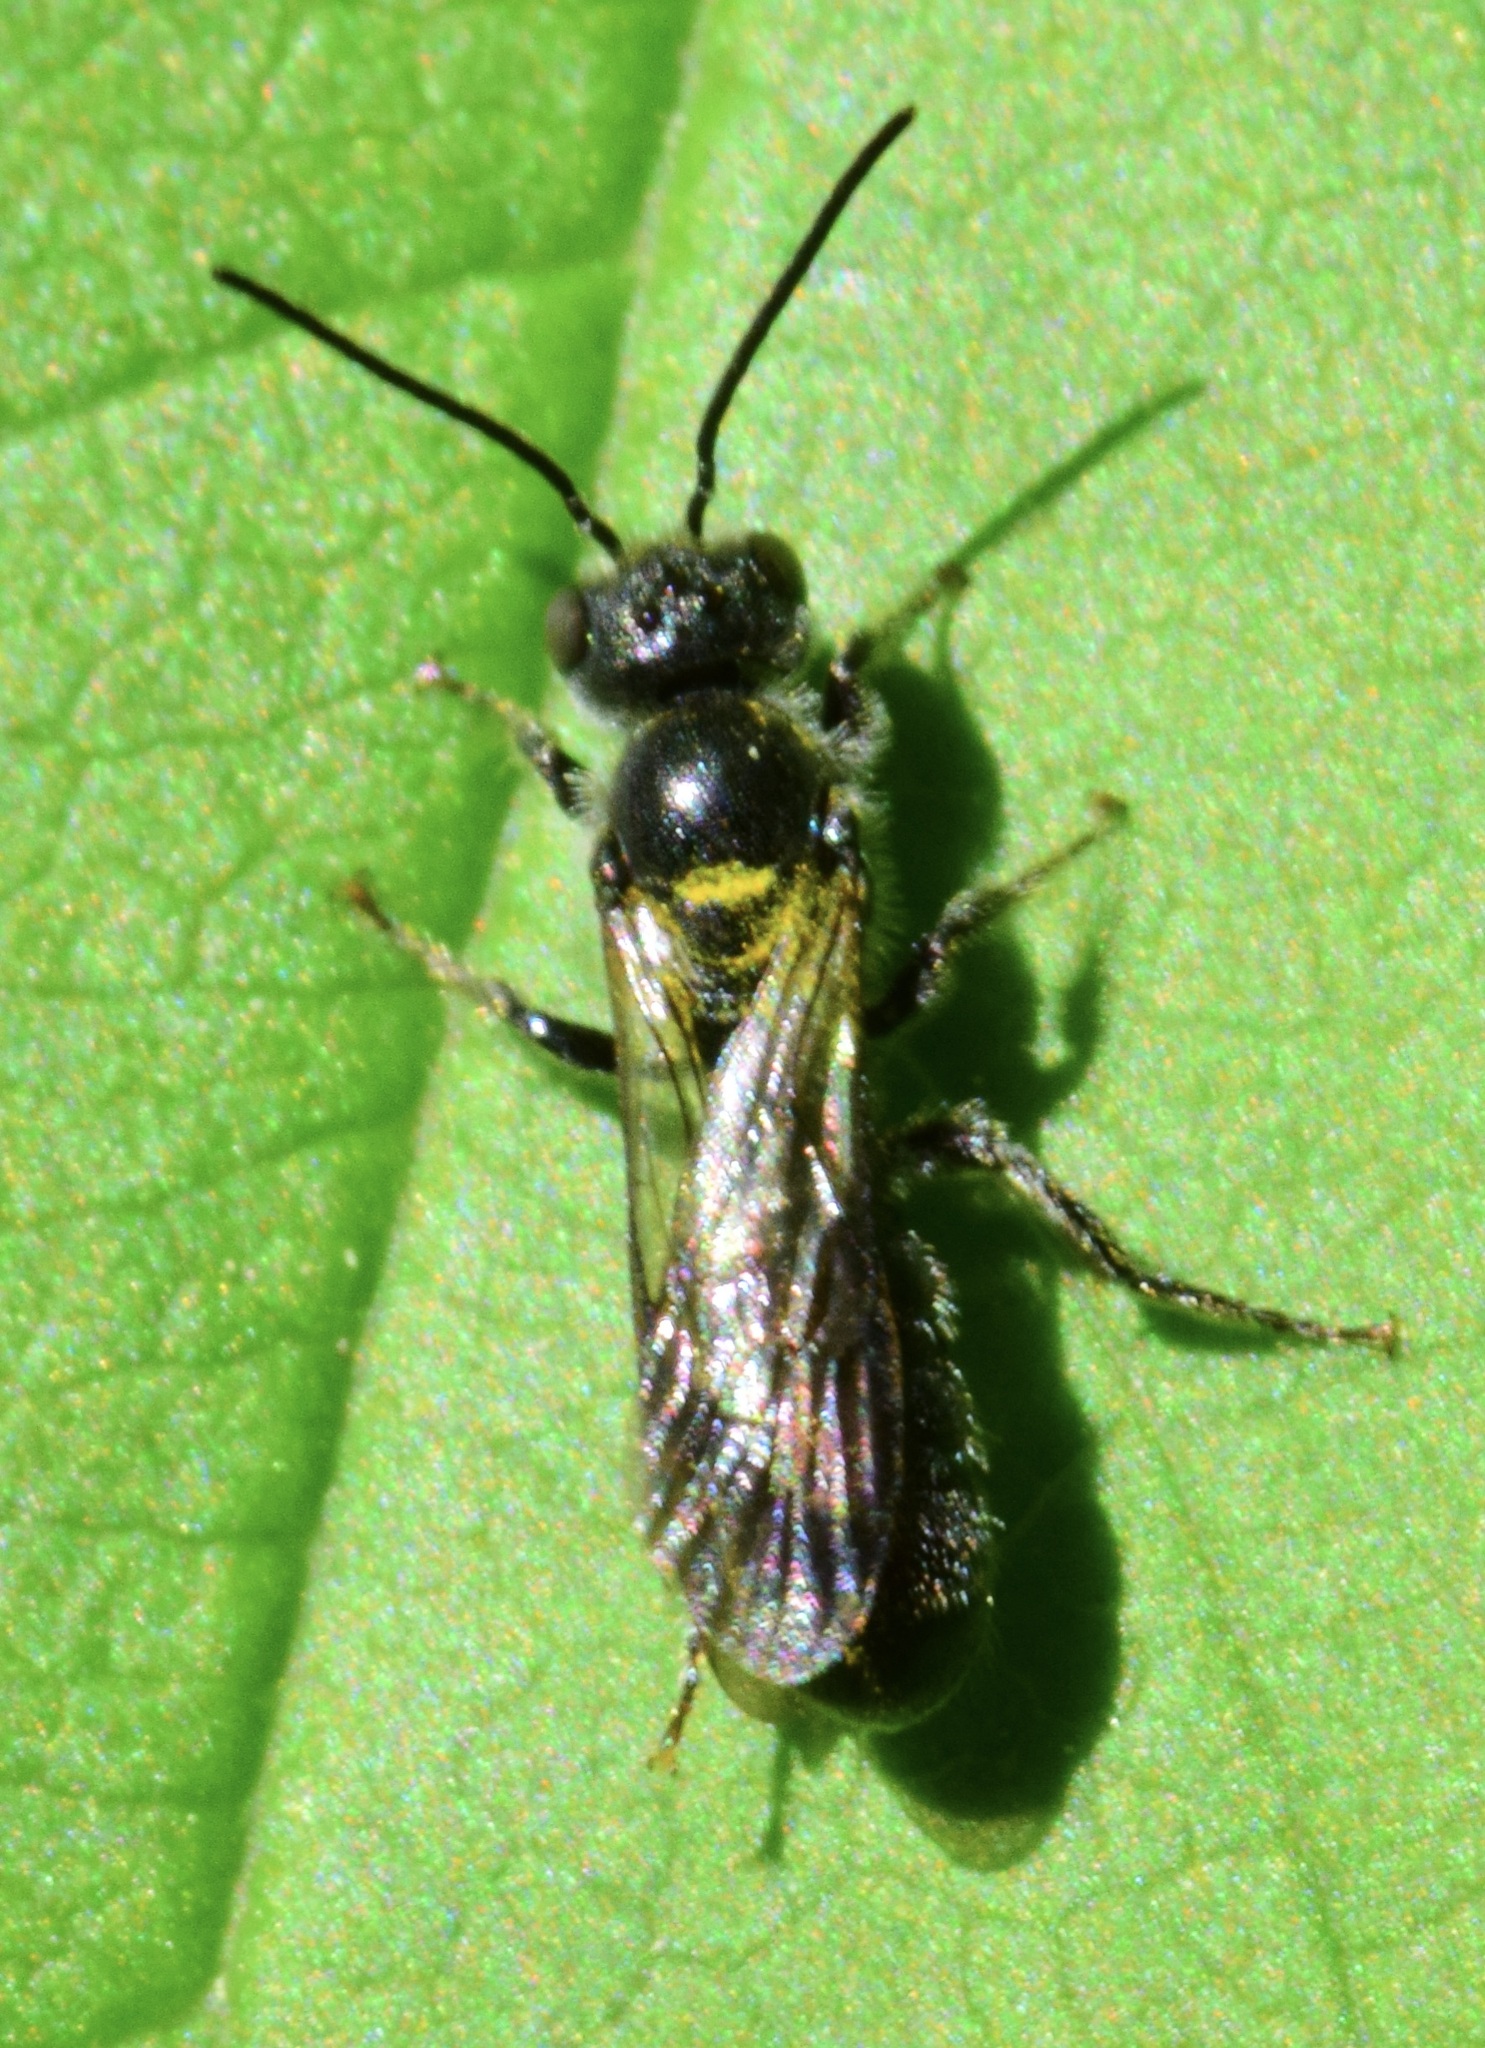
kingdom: Animalia
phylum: Arthropoda
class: Insecta
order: Hymenoptera
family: Megachilidae
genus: Chelostoma
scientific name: Chelostoma philadelphi
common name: Mock-orange scissor bee
